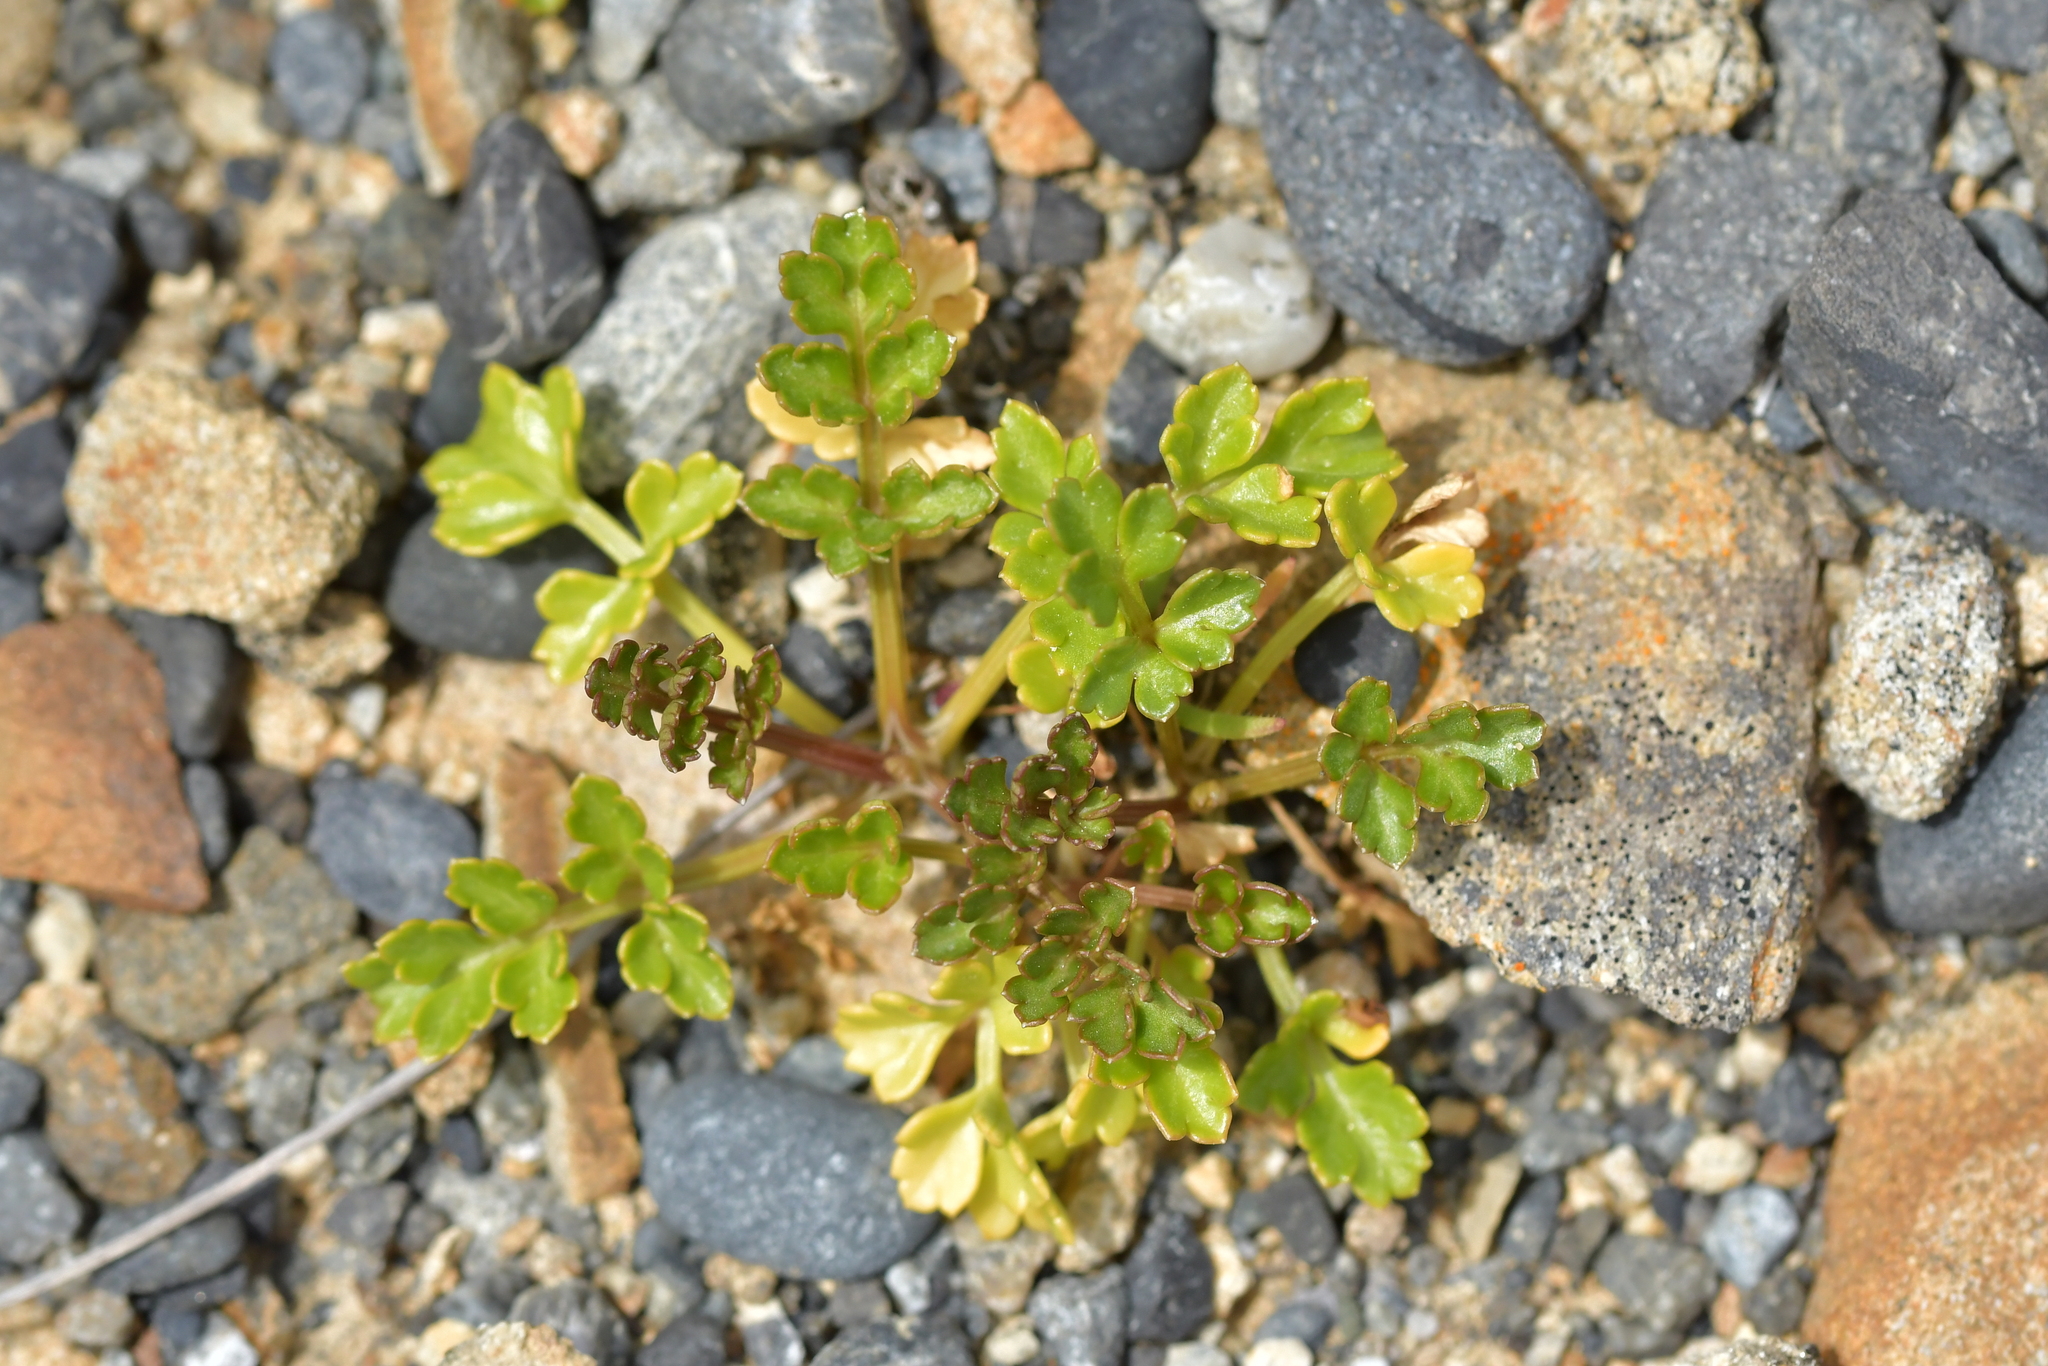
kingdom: Plantae
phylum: Tracheophyta
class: Magnoliopsida
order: Apiales
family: Apiaceae
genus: Apium
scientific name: Apium prostratum
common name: Prostrate marshwort
